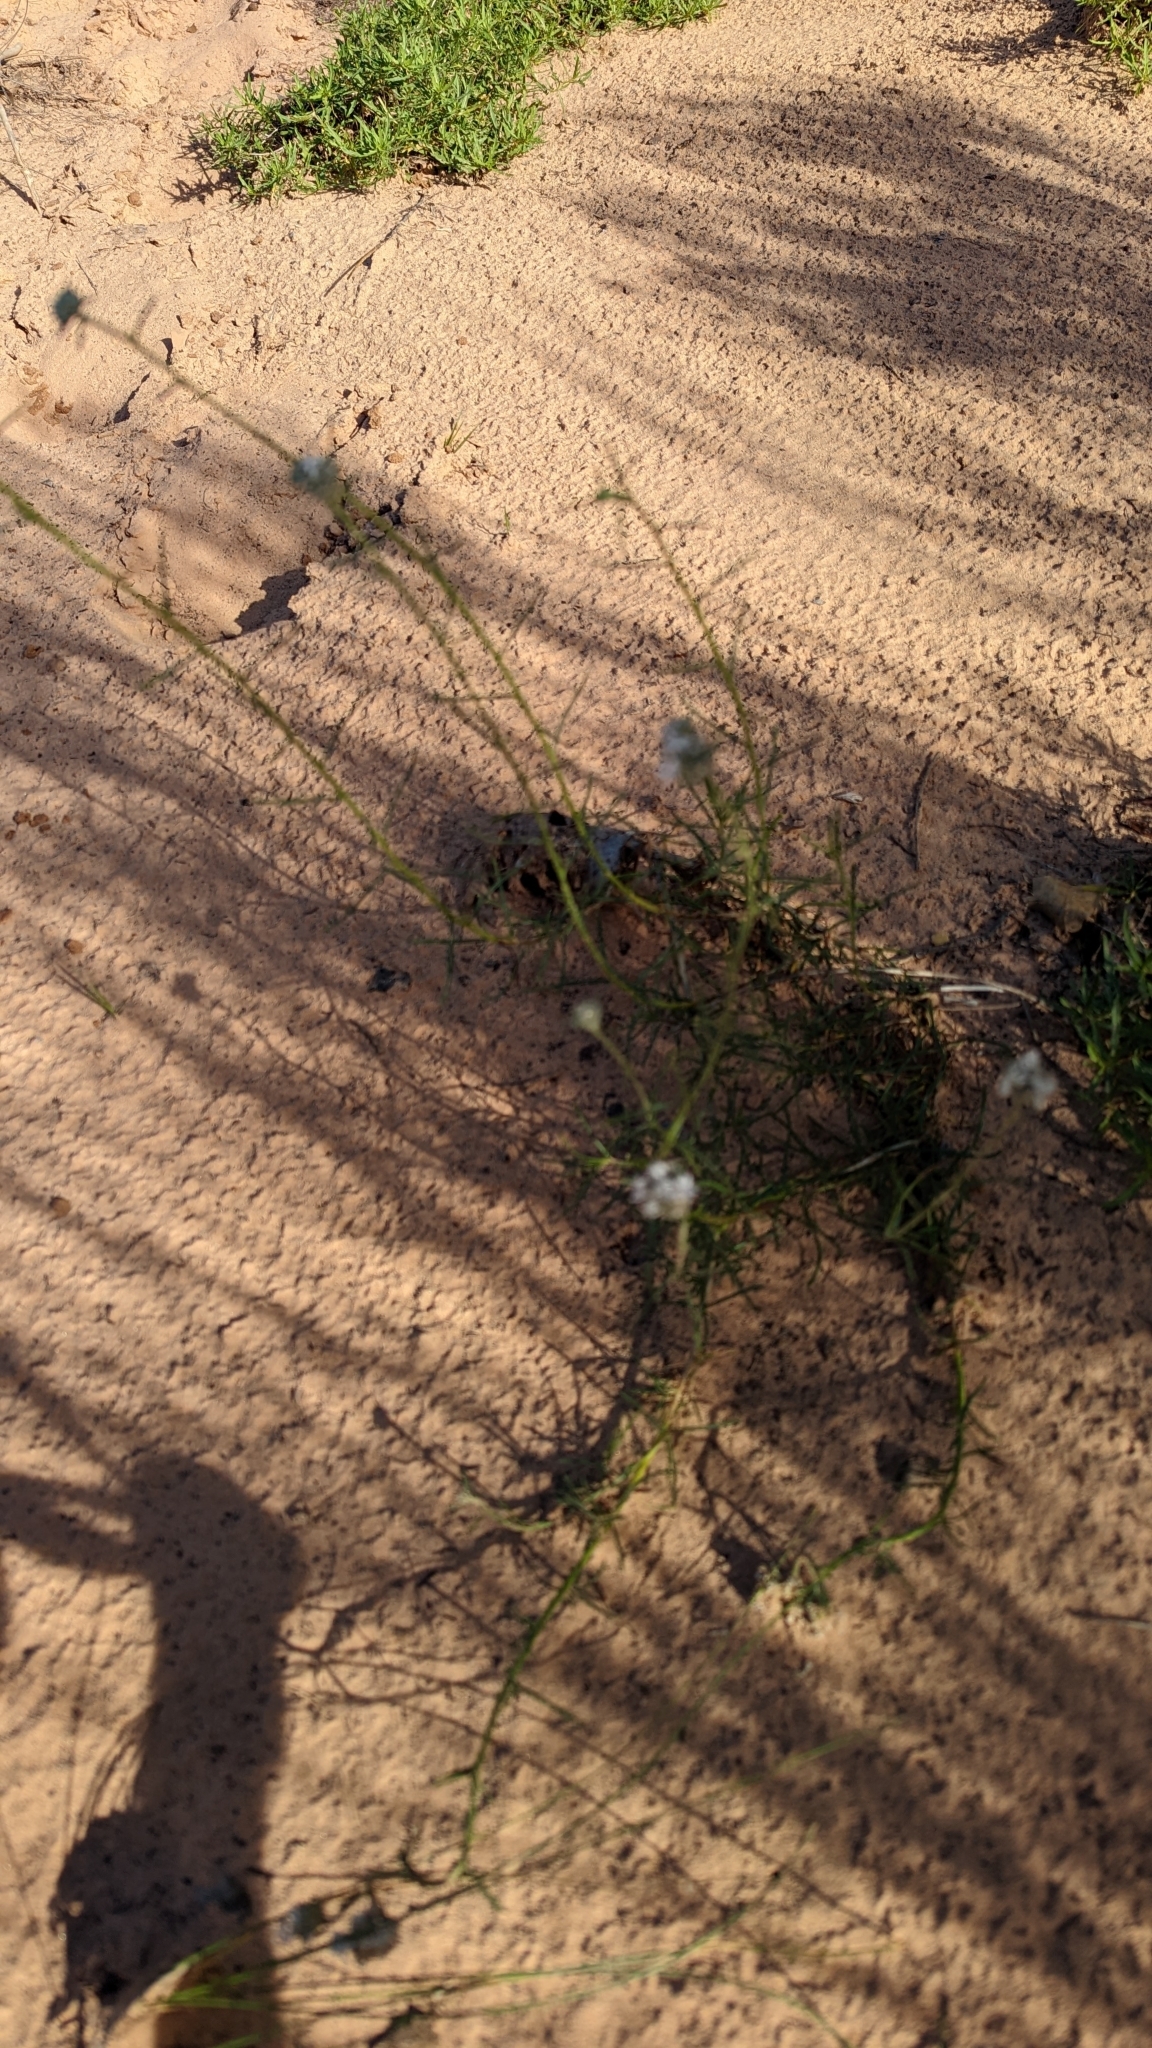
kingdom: Plantae
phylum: Tracheophyta
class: Magnoliopsida
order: Ericales
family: Polemoniaceae
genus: Ipomopsis
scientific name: Ipomopsis congesta
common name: Ball-head gilia
